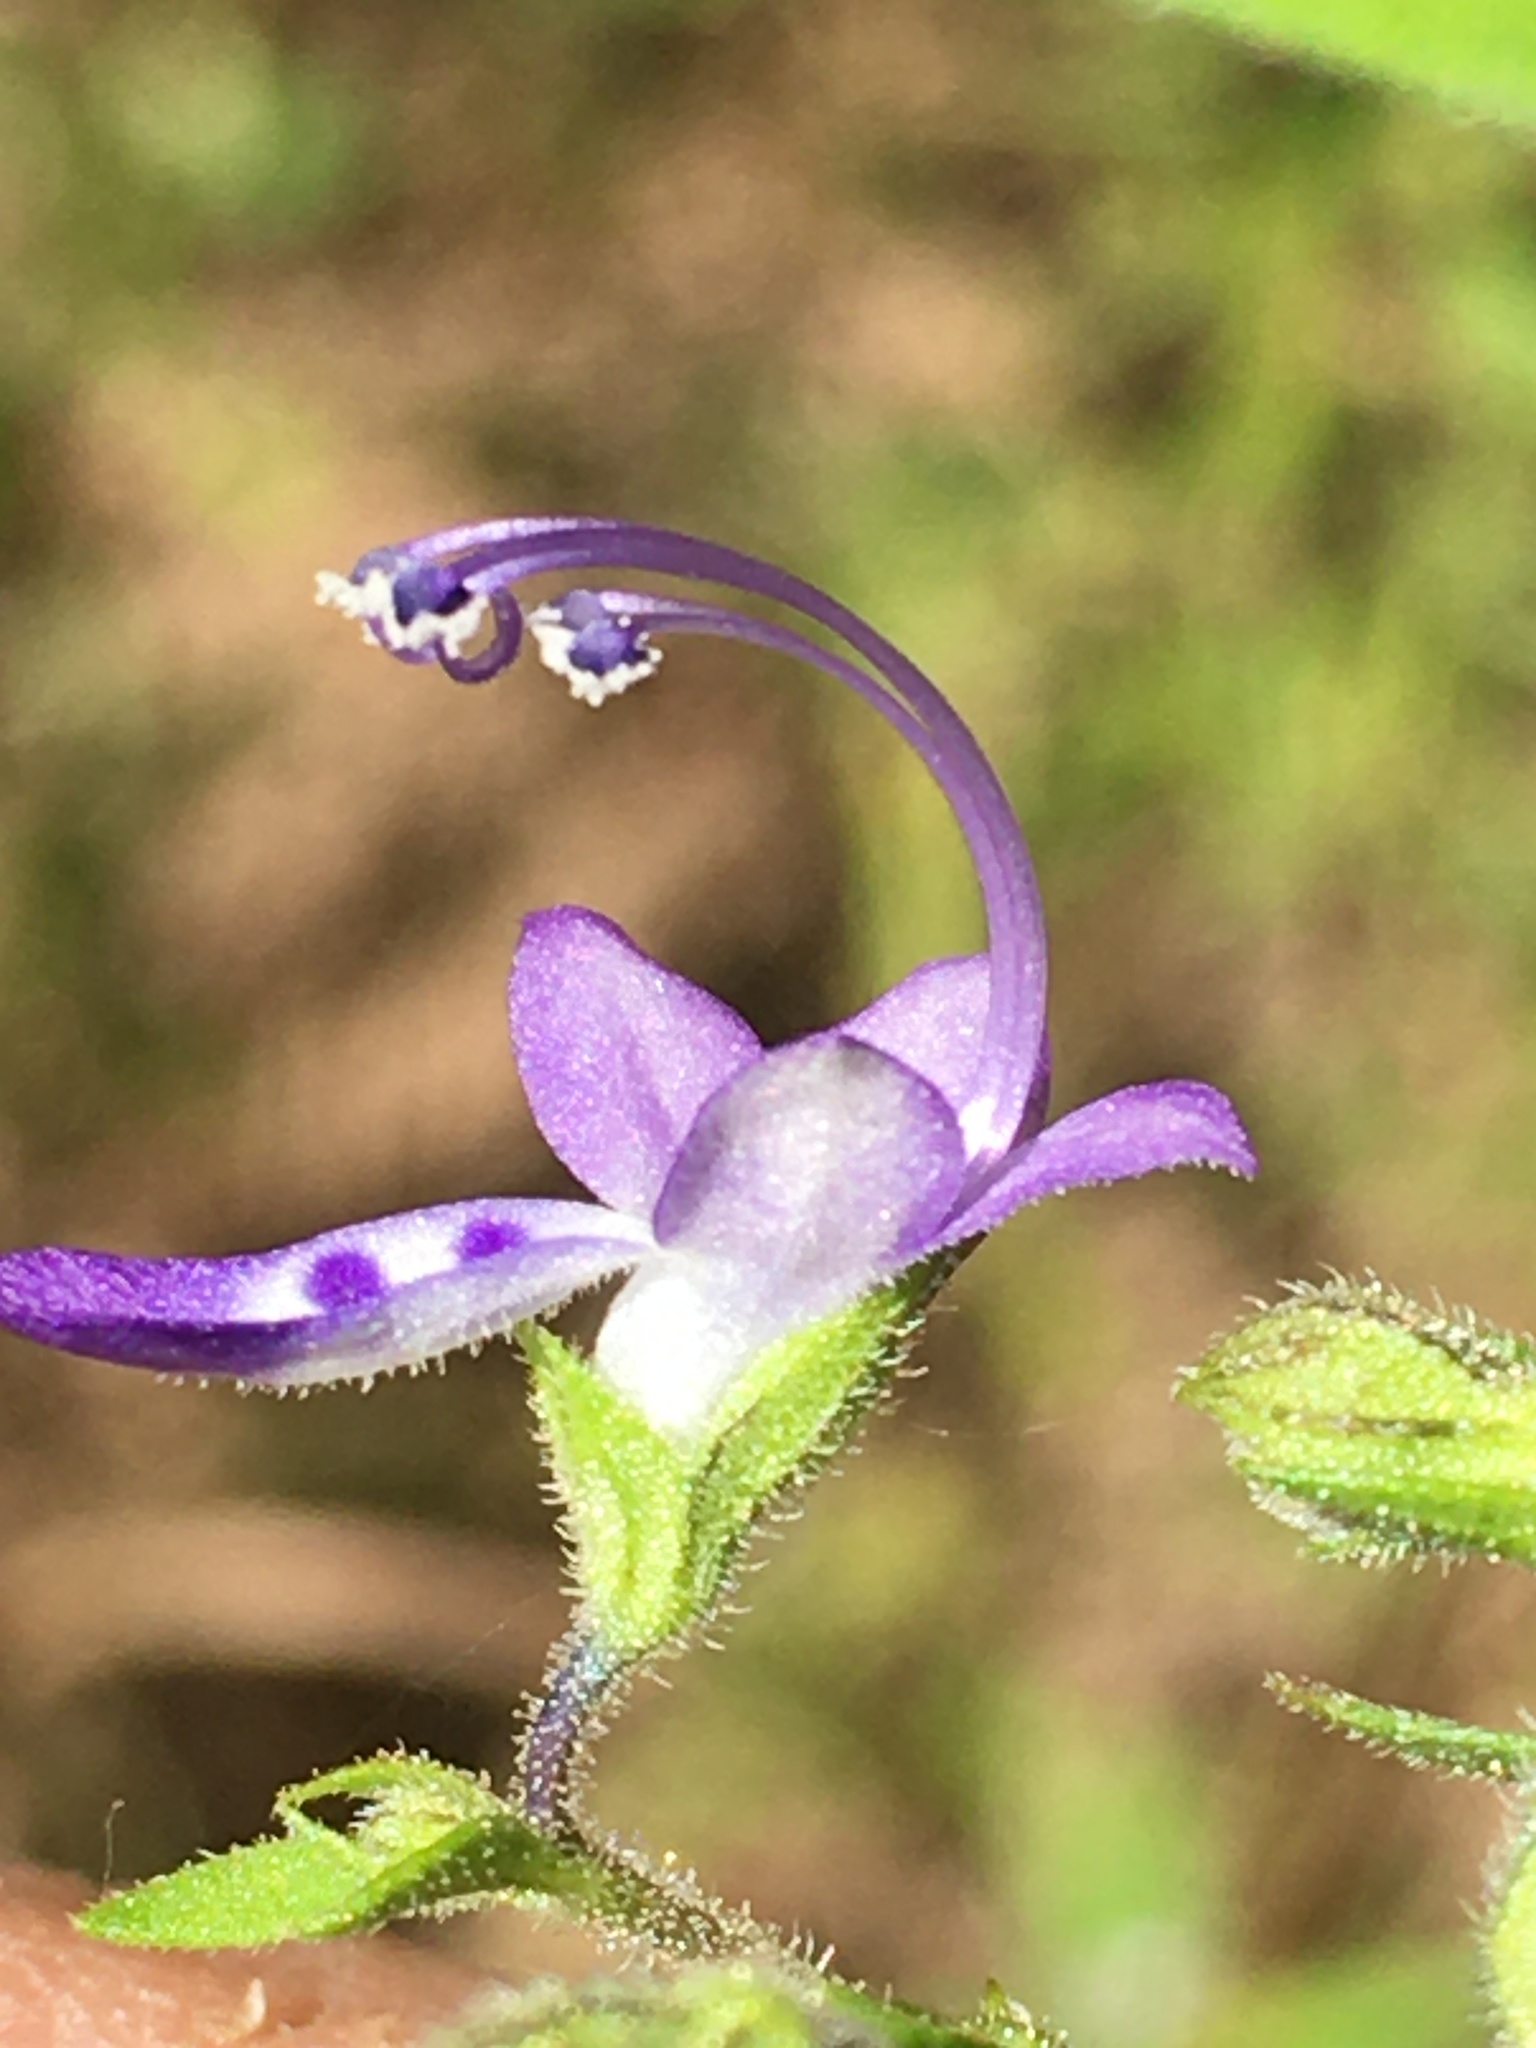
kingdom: Plantae
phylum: Tracheophyta
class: Magnoliopsida
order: Lamiales
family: Lamiaceae
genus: Trichostema
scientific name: Trichostema dichotomum
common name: Bastard pennyroyal
